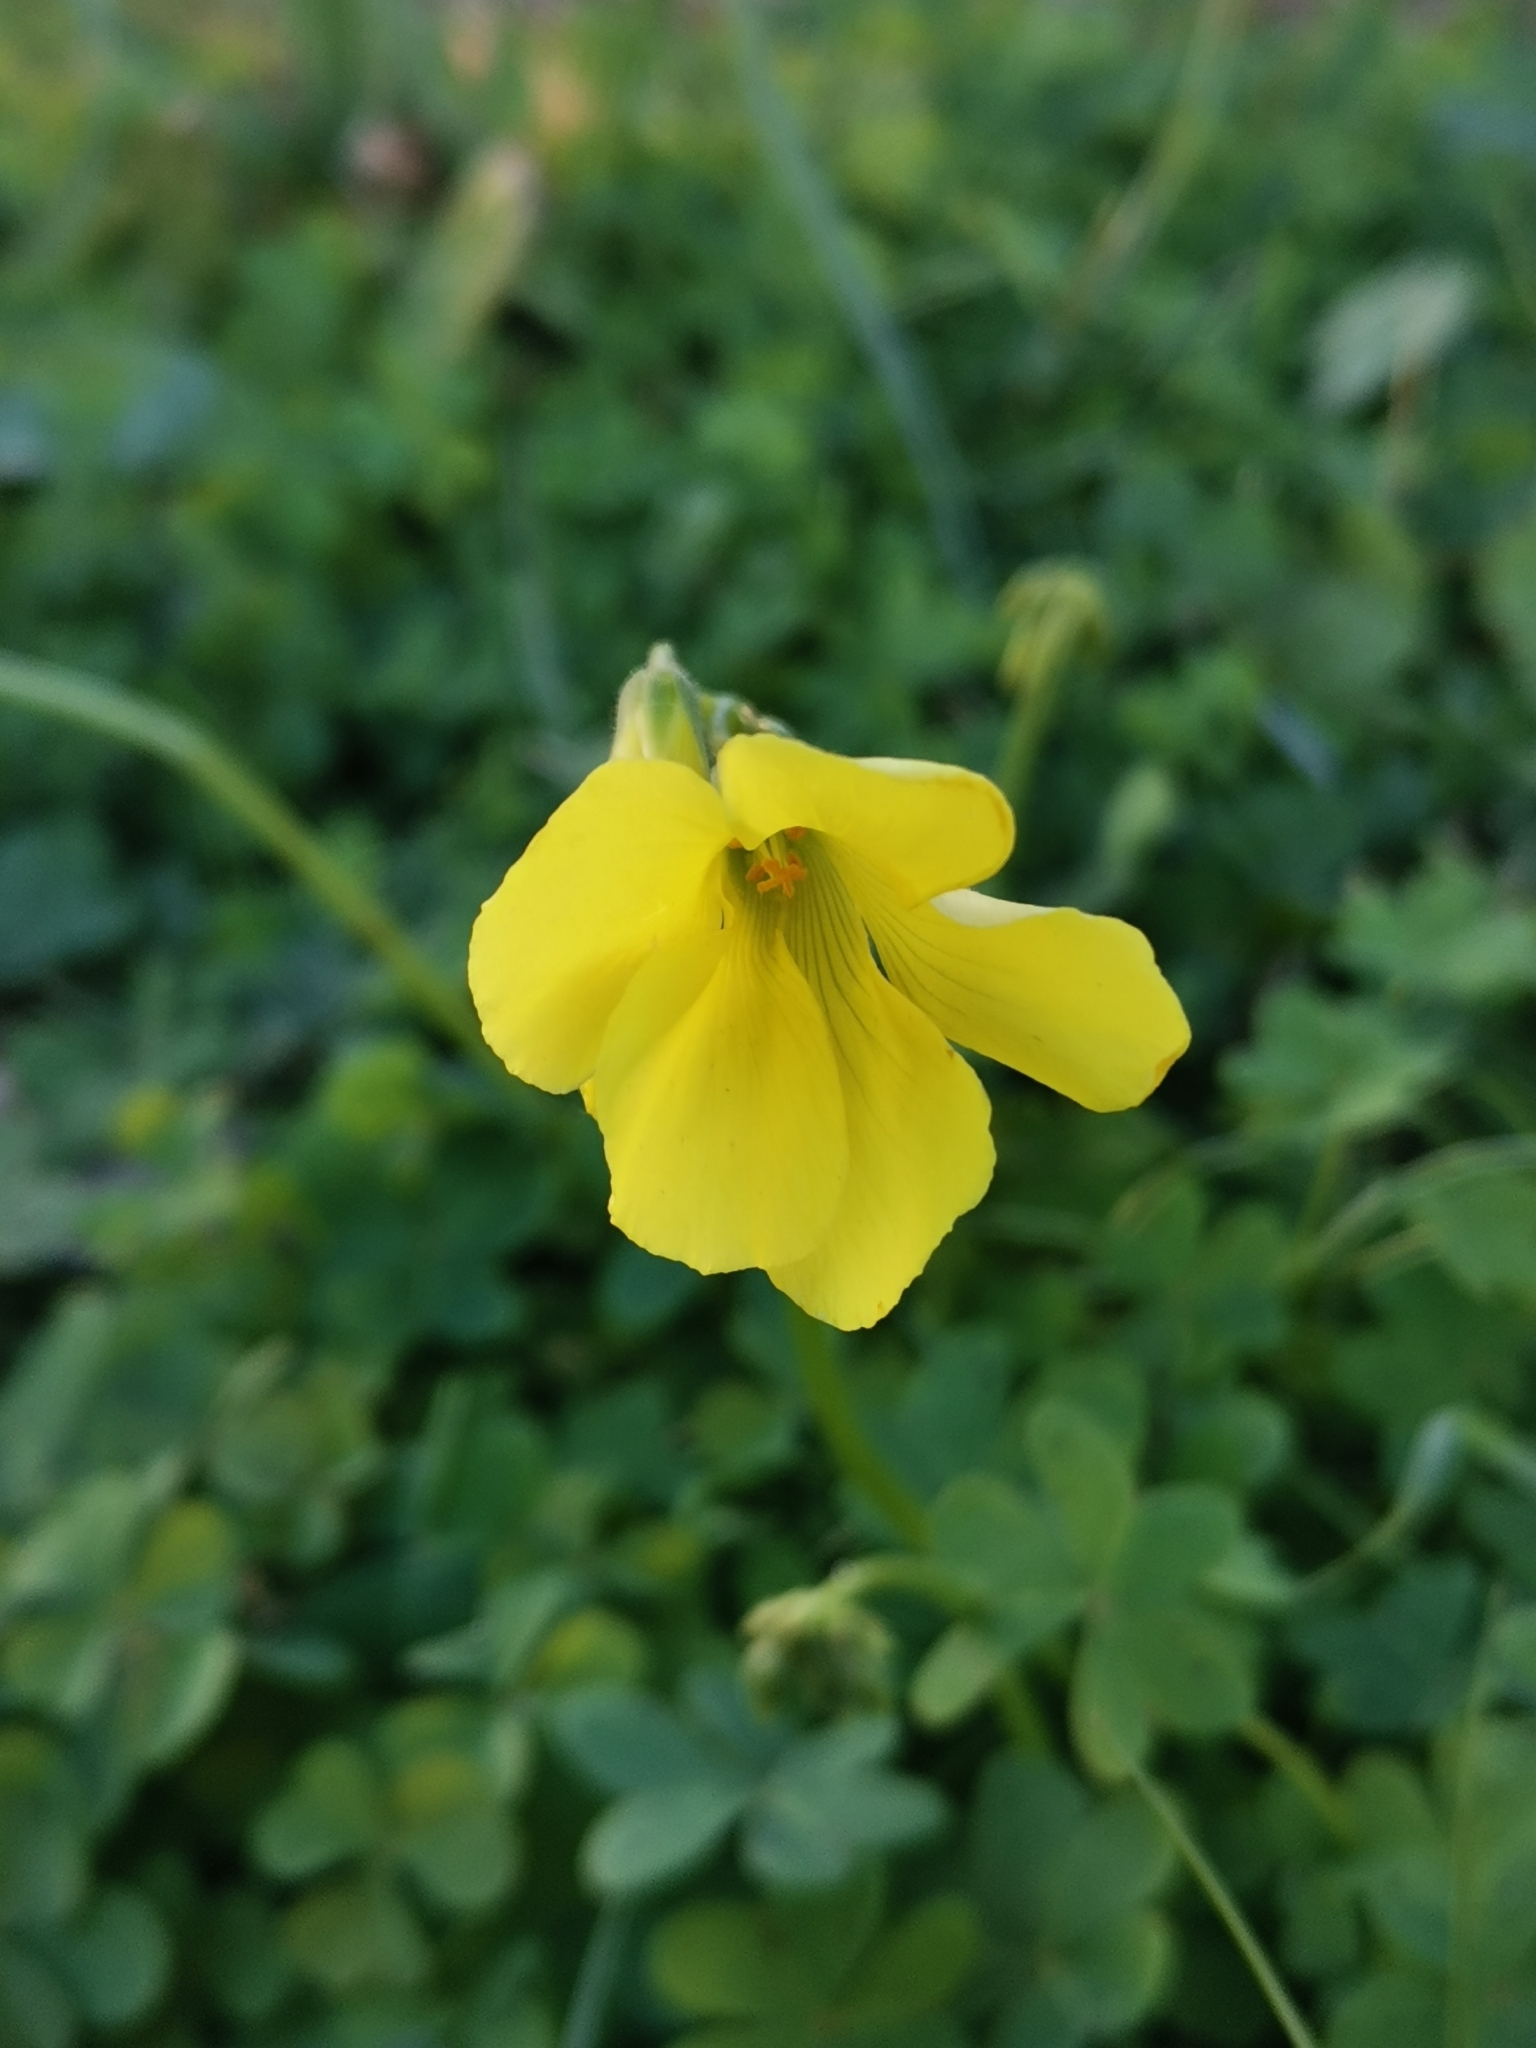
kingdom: Plantae
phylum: Tracheophyta
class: Magnoliopsida
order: Oxalidales
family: Oxalidaceae
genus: Oxalis
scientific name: Oxalis pes-caprae
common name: Bermuda-buttercup
